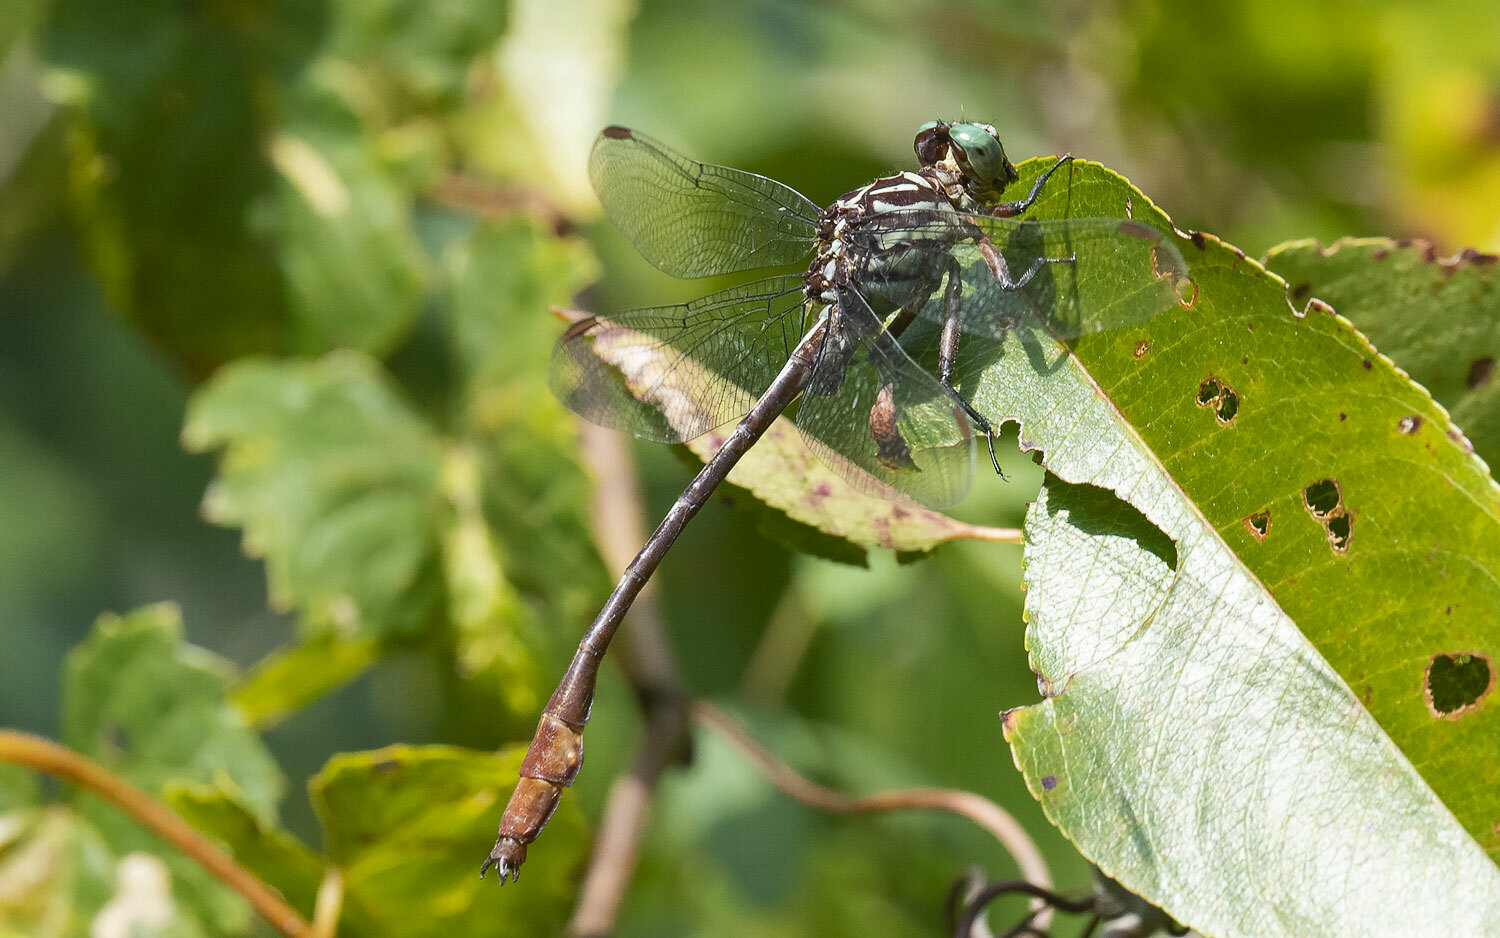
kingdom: Animalia
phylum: Arthropoda
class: Insecta
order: Odonata
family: Gomphidae
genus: Stylurus
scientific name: Stylurus plagiatus
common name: Russet-tipped clubtail
